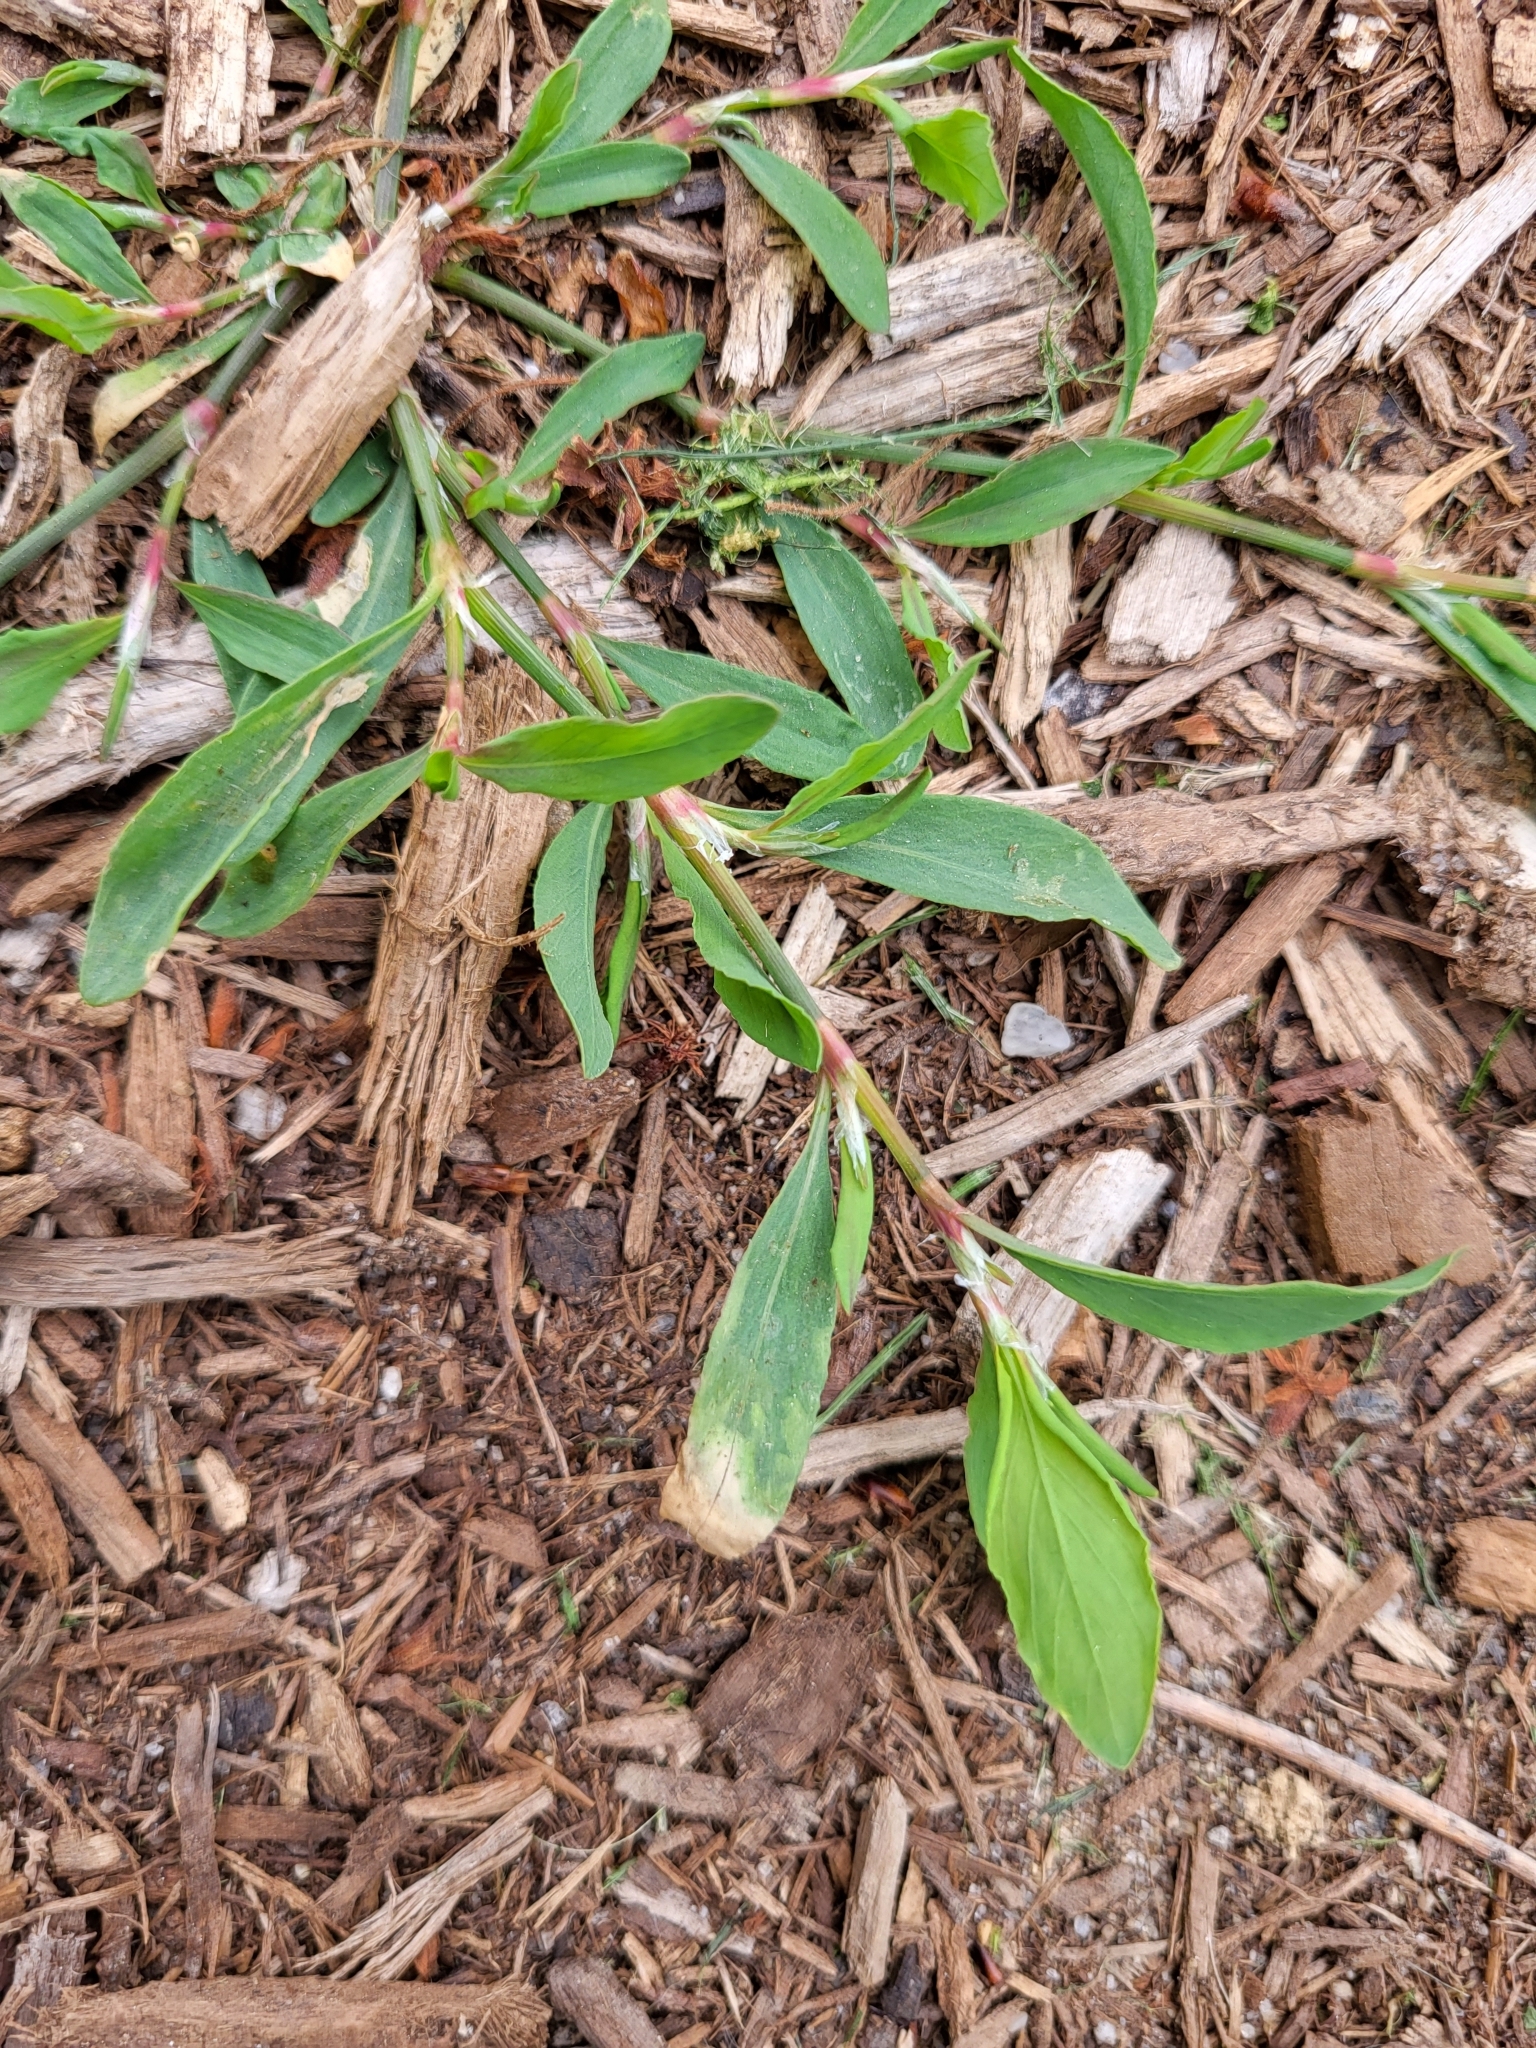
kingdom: Plantae
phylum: Tracheophyta
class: Magnoliopsida
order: Caryophyllales
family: Polygonaceae
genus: Polygonum
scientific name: Polygonum aviculare
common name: Prostrate knotweed
